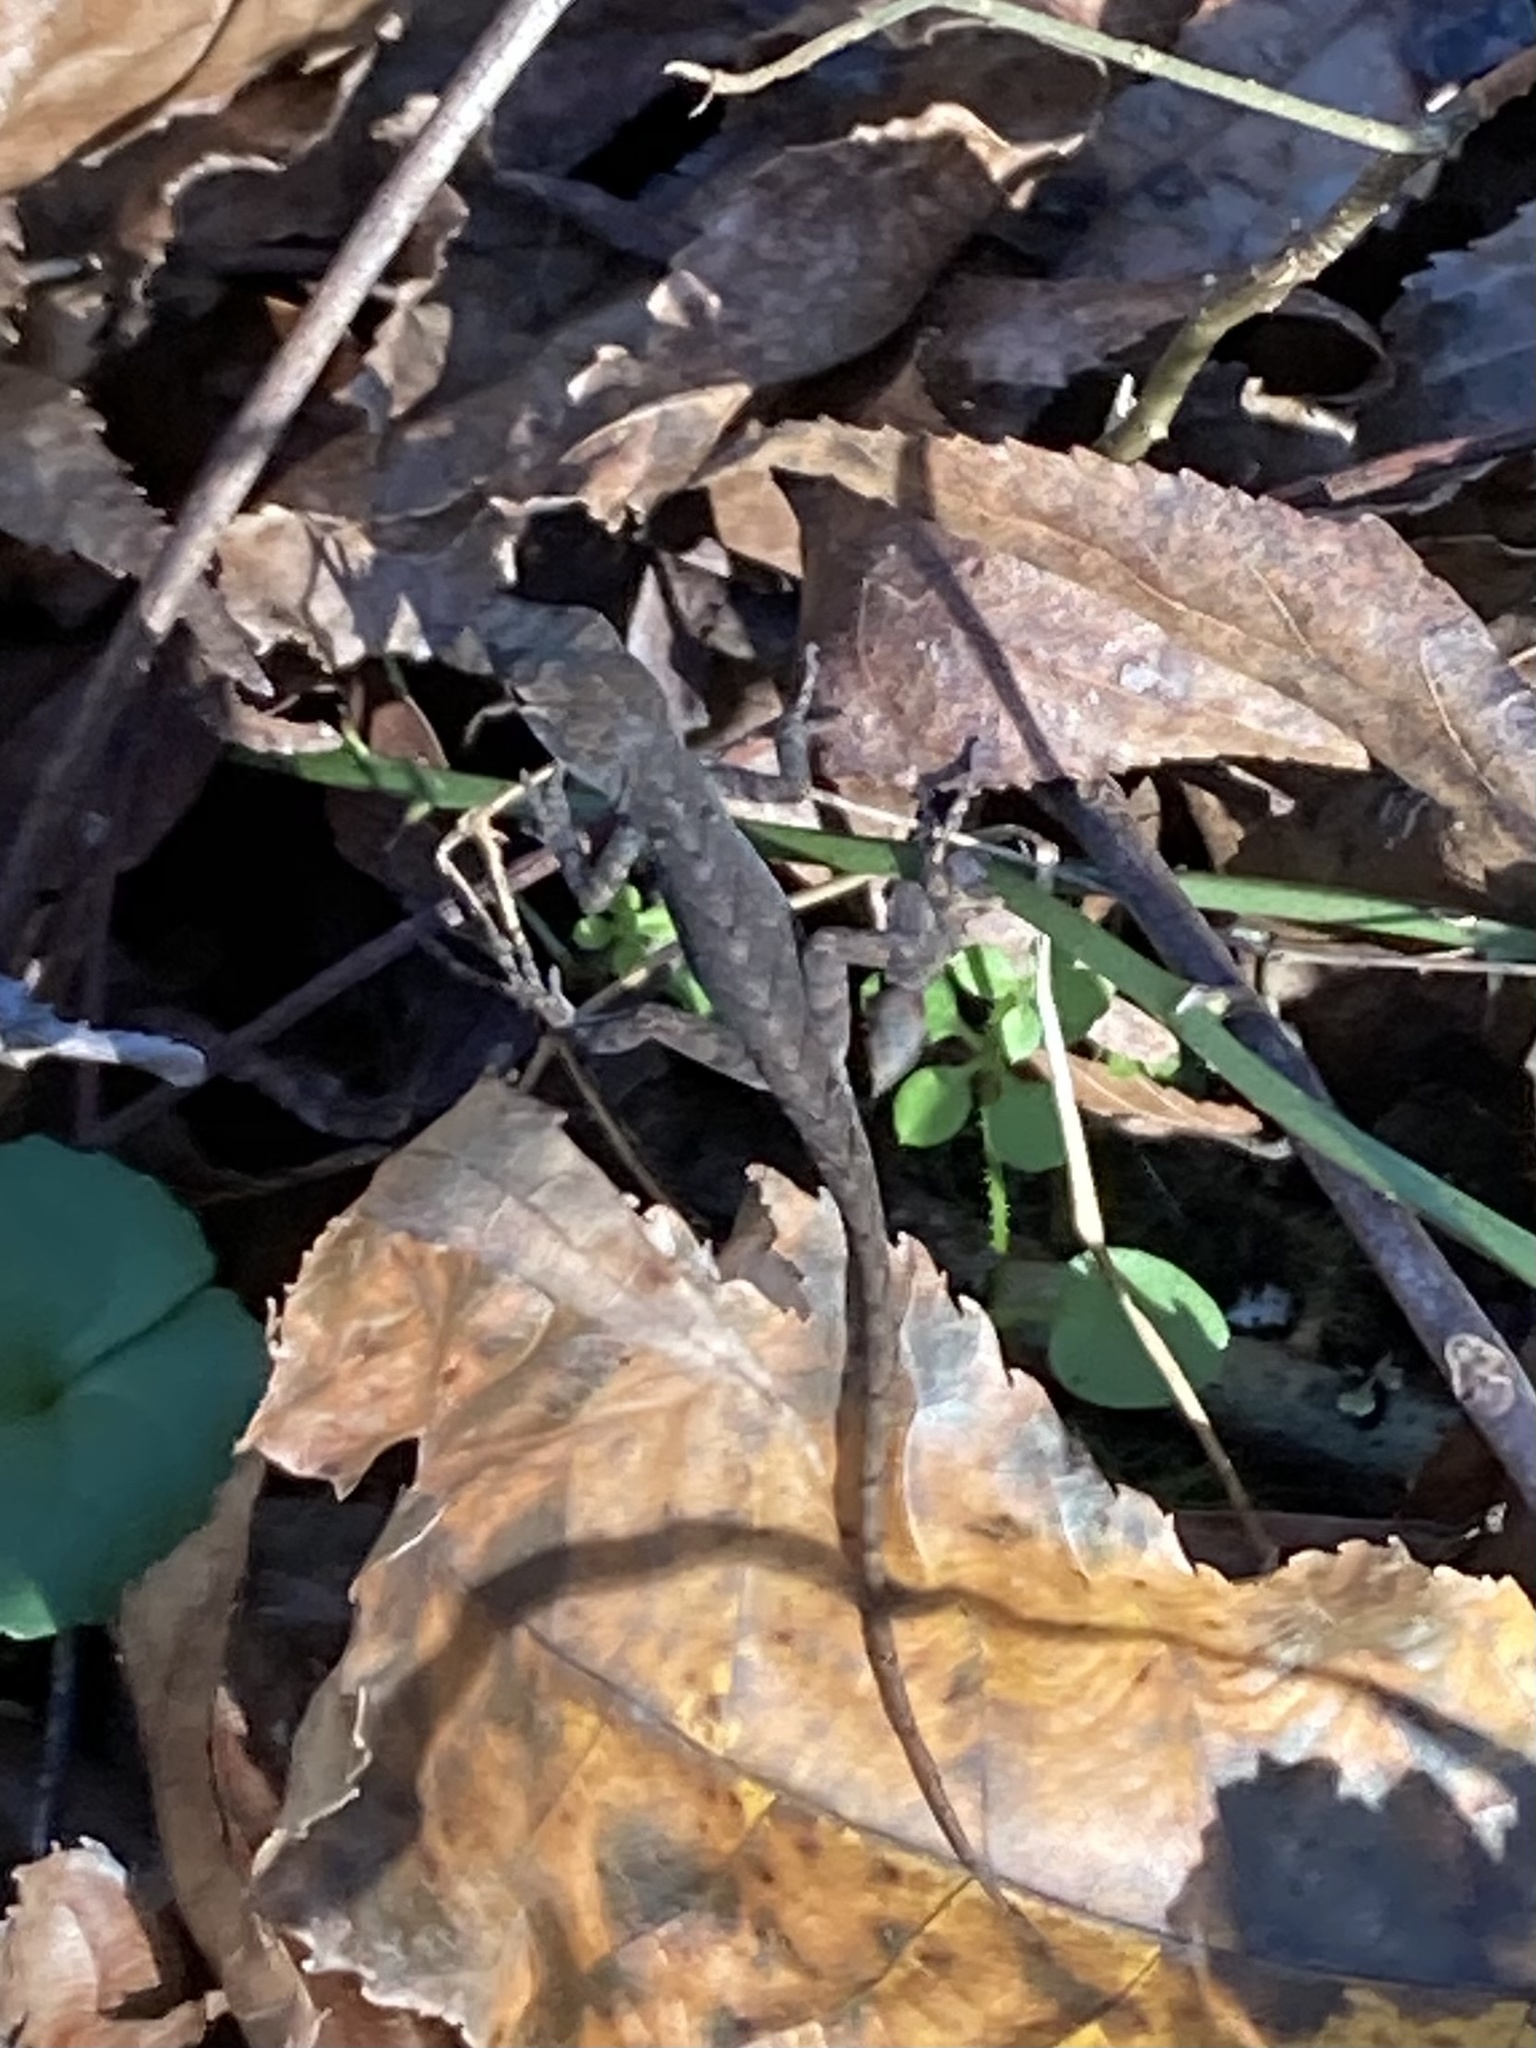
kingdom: Animalia
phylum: Chordata
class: Squamata
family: Dactyloidae
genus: Anolis
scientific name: Anolis sagrei
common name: Brown anole
